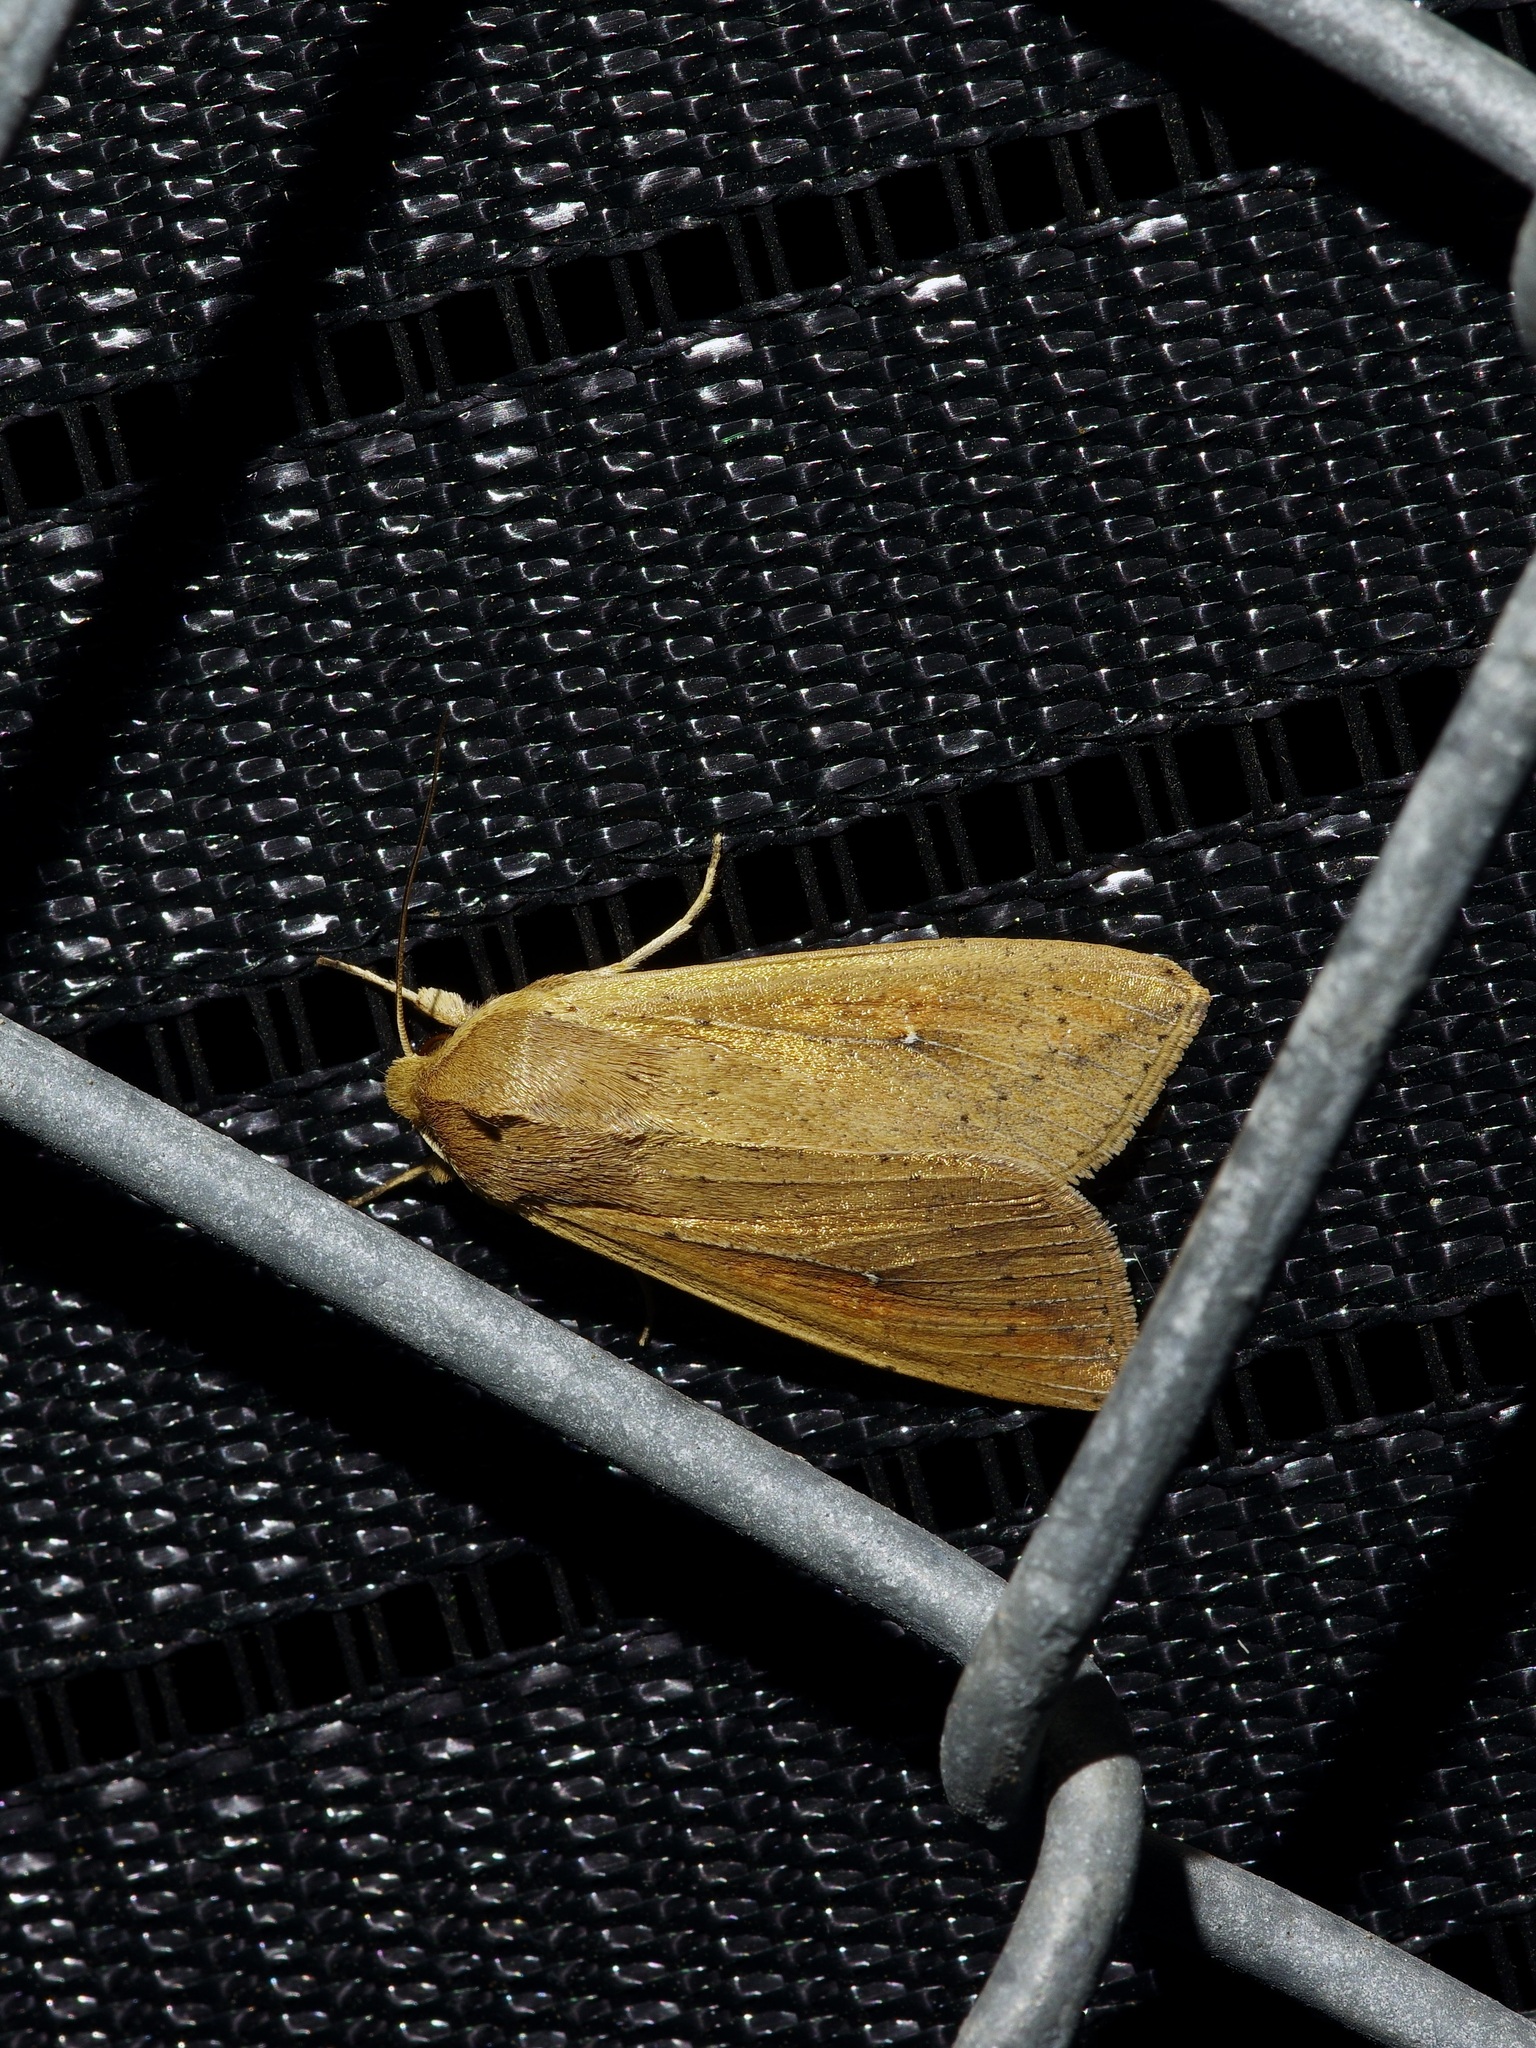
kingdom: Animalia
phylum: Arthropoda
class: Insecta
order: Lepidoptera
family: Noctuidae
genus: Mythimna
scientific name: Mythimna unipuncta
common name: White-speck
